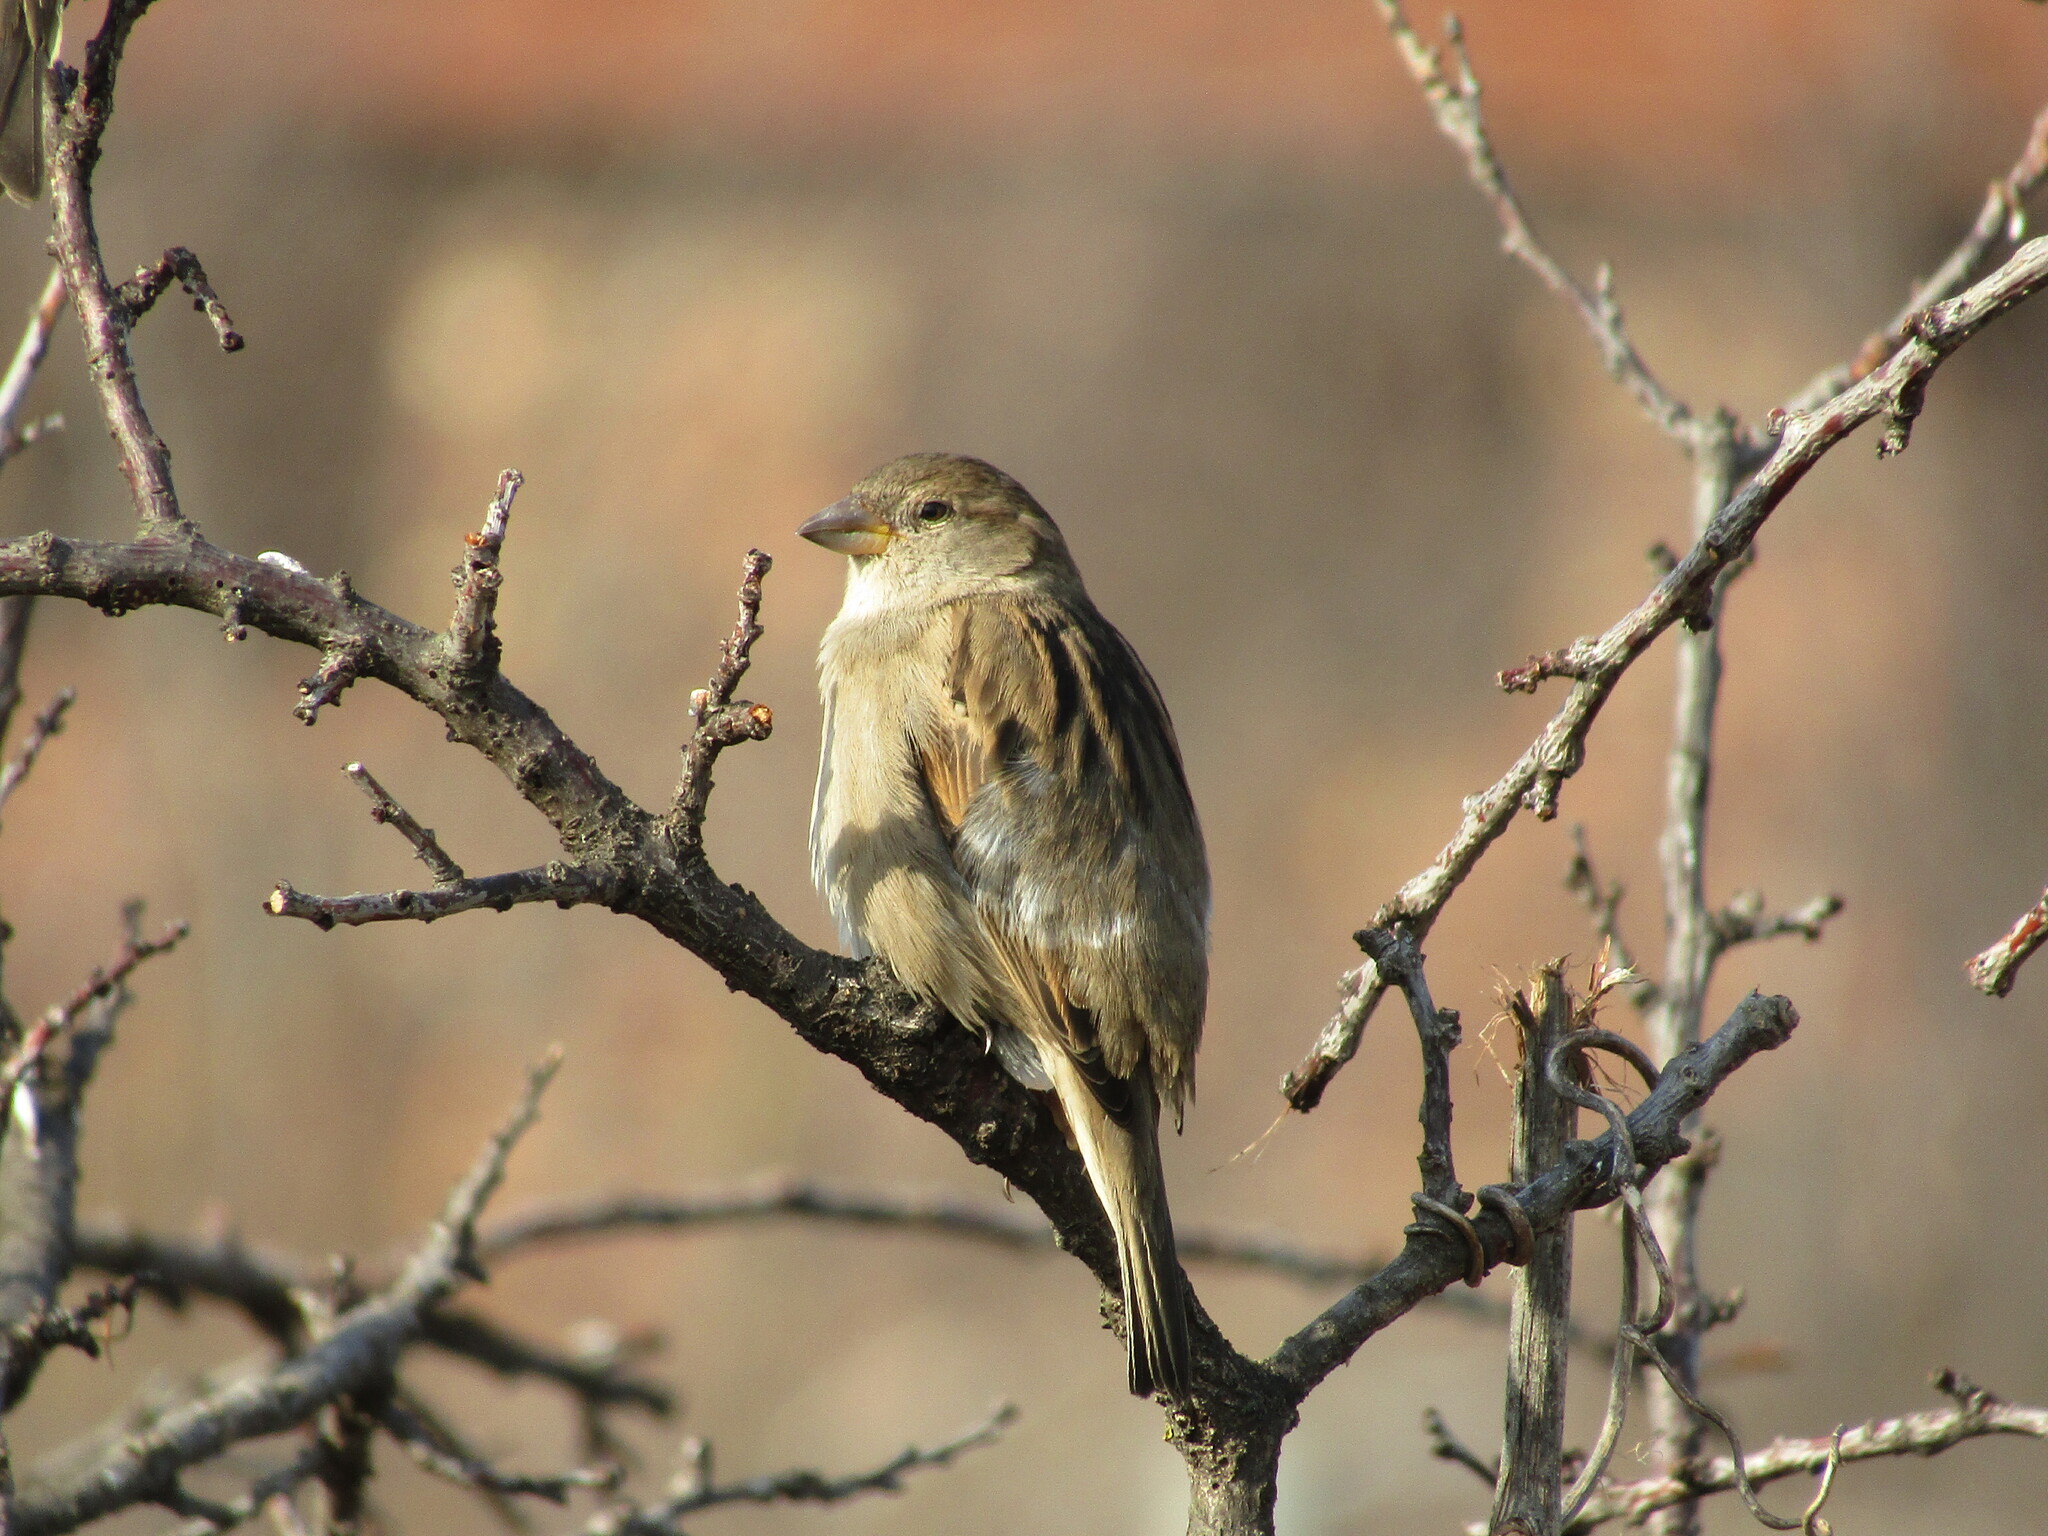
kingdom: Animalia
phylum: Chordata
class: Aves
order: Passeriformes
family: Passeridae
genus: Passer
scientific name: Passer domesticus
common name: House sparrow
